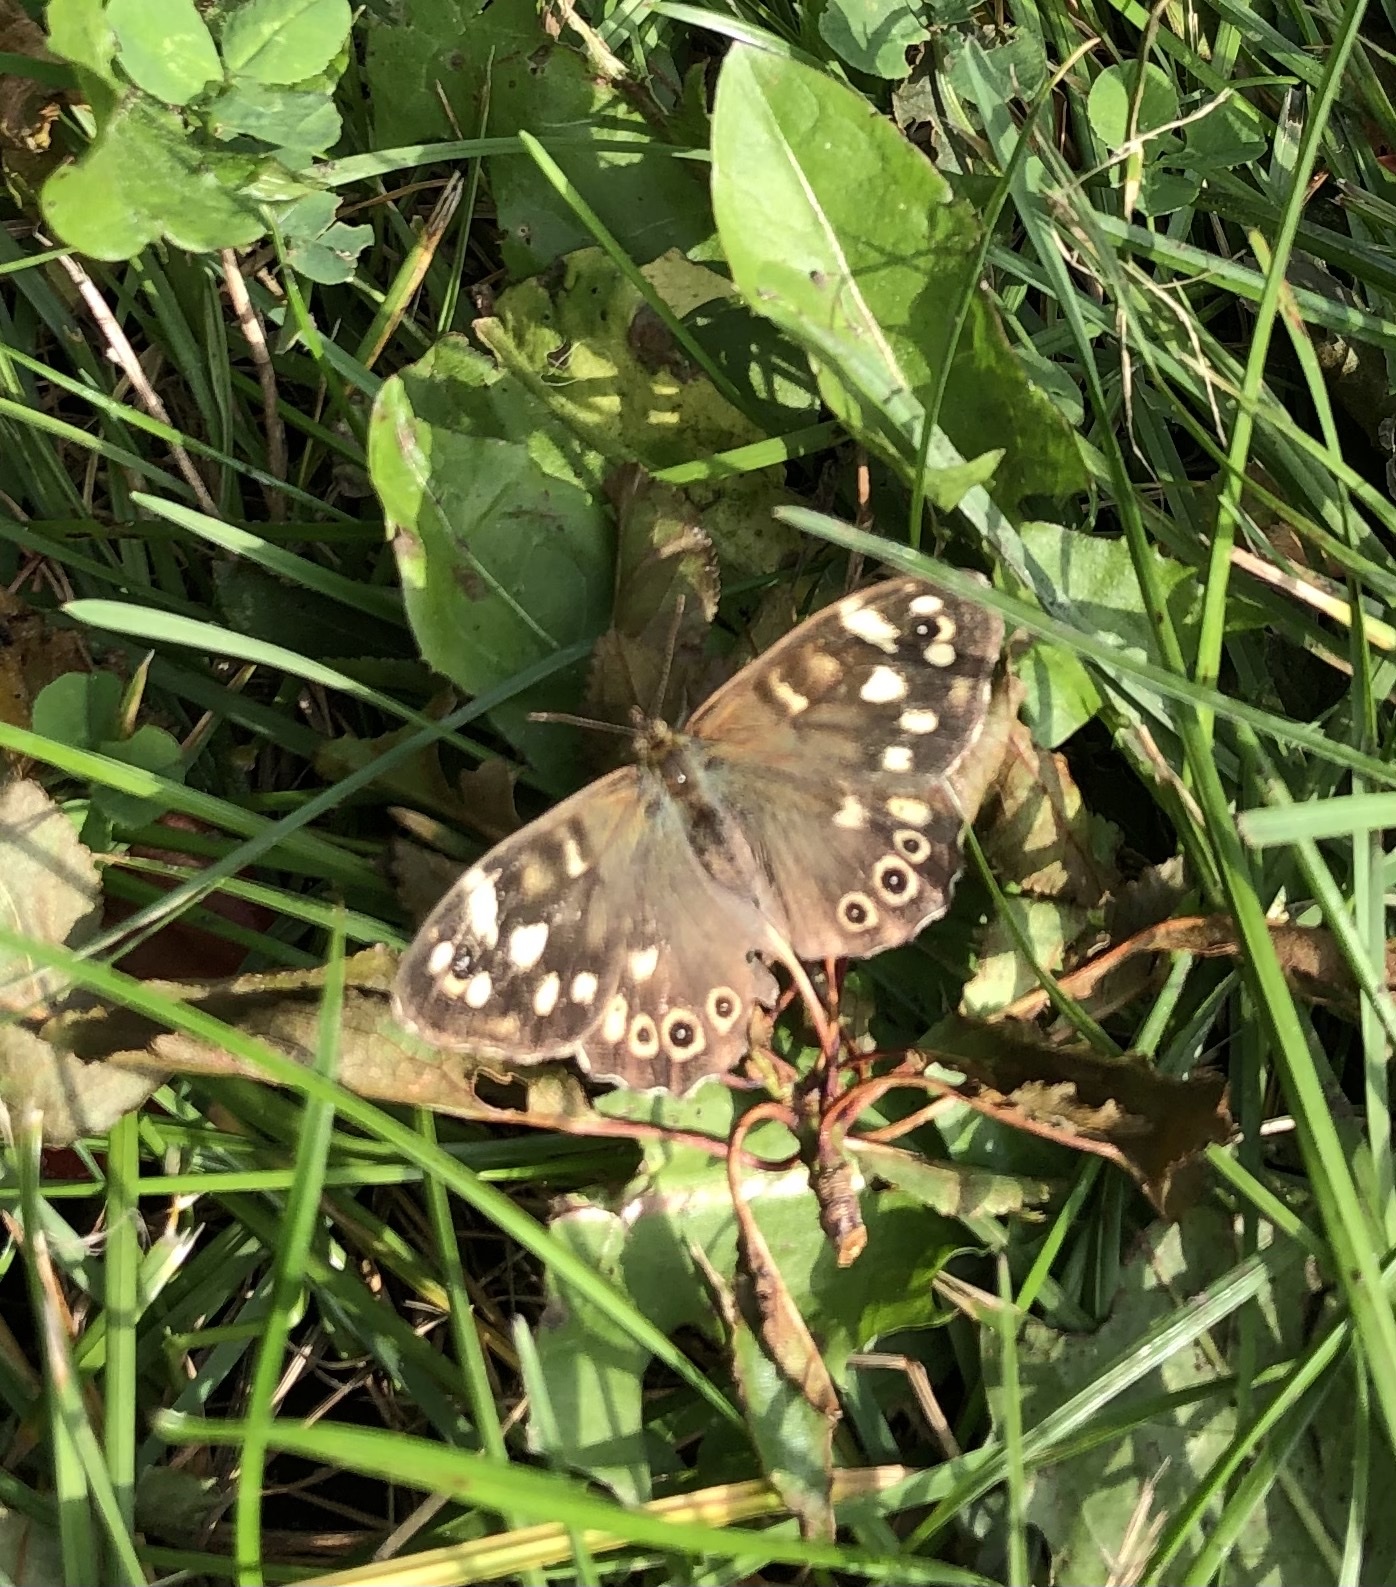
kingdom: Animalia
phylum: Arthropoda
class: Insecta
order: Lepidoptera
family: Nymphalidae
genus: Pararge
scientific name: Pararge aegeria
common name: Speckled wood
